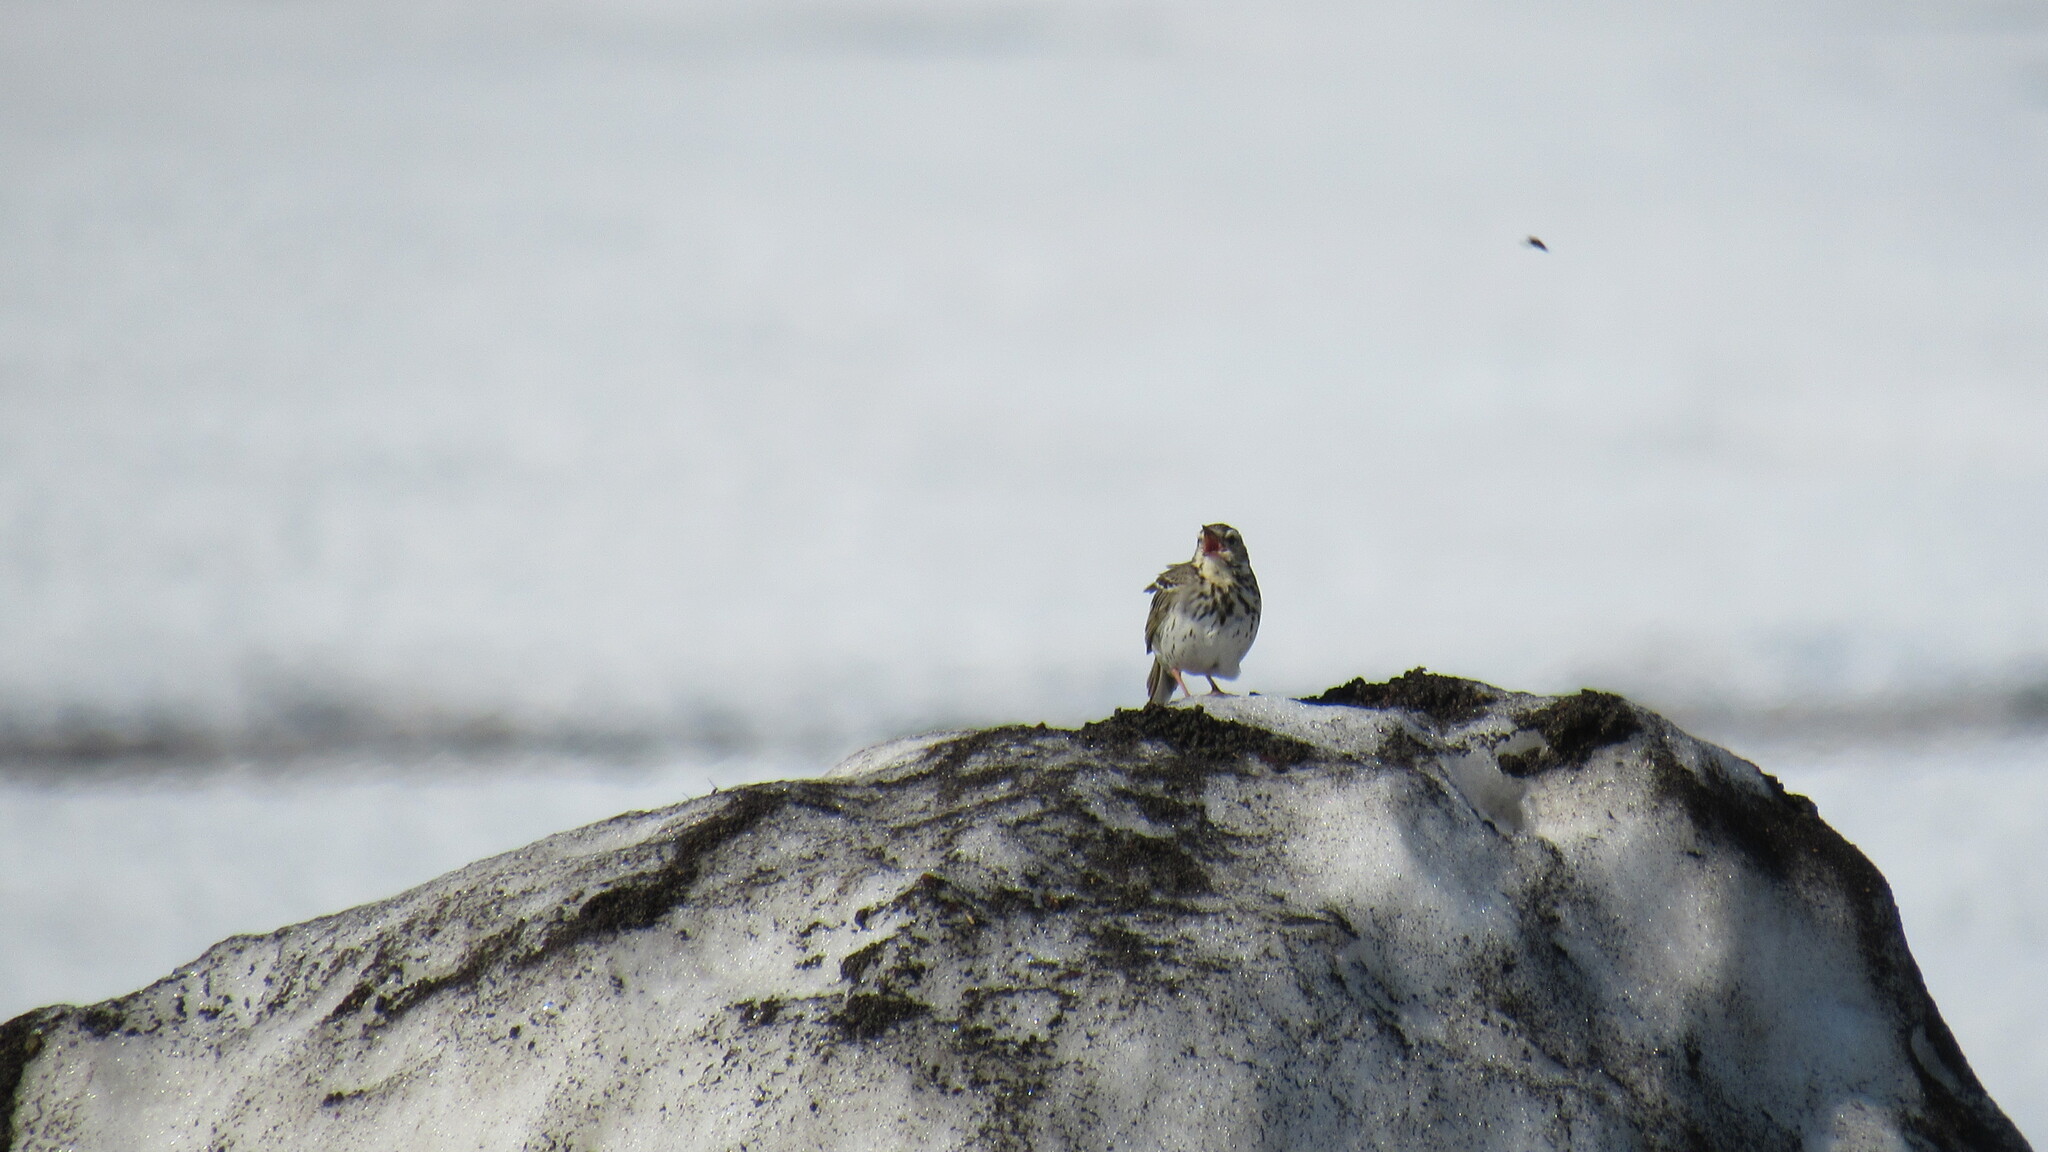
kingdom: Animalia
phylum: Chordata
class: Aves
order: Passeriformes
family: Motacillidae
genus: Anthus
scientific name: Anthus hodgsoni
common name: Olive-backed pipit
